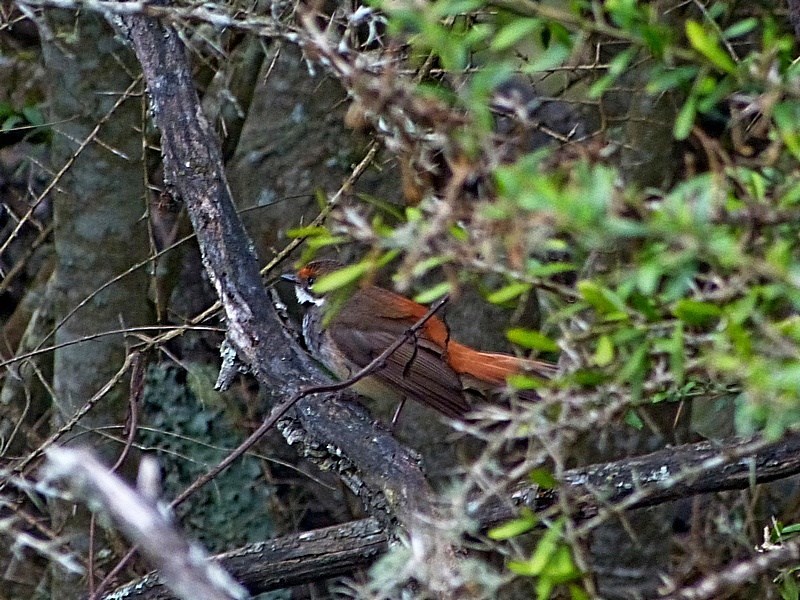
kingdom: Animalia
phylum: Chordata
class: Aves
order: Passeriformes
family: Rhipiduridae
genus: Rhipidura
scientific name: Rhipidura rufifrons
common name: Rufous fantail
